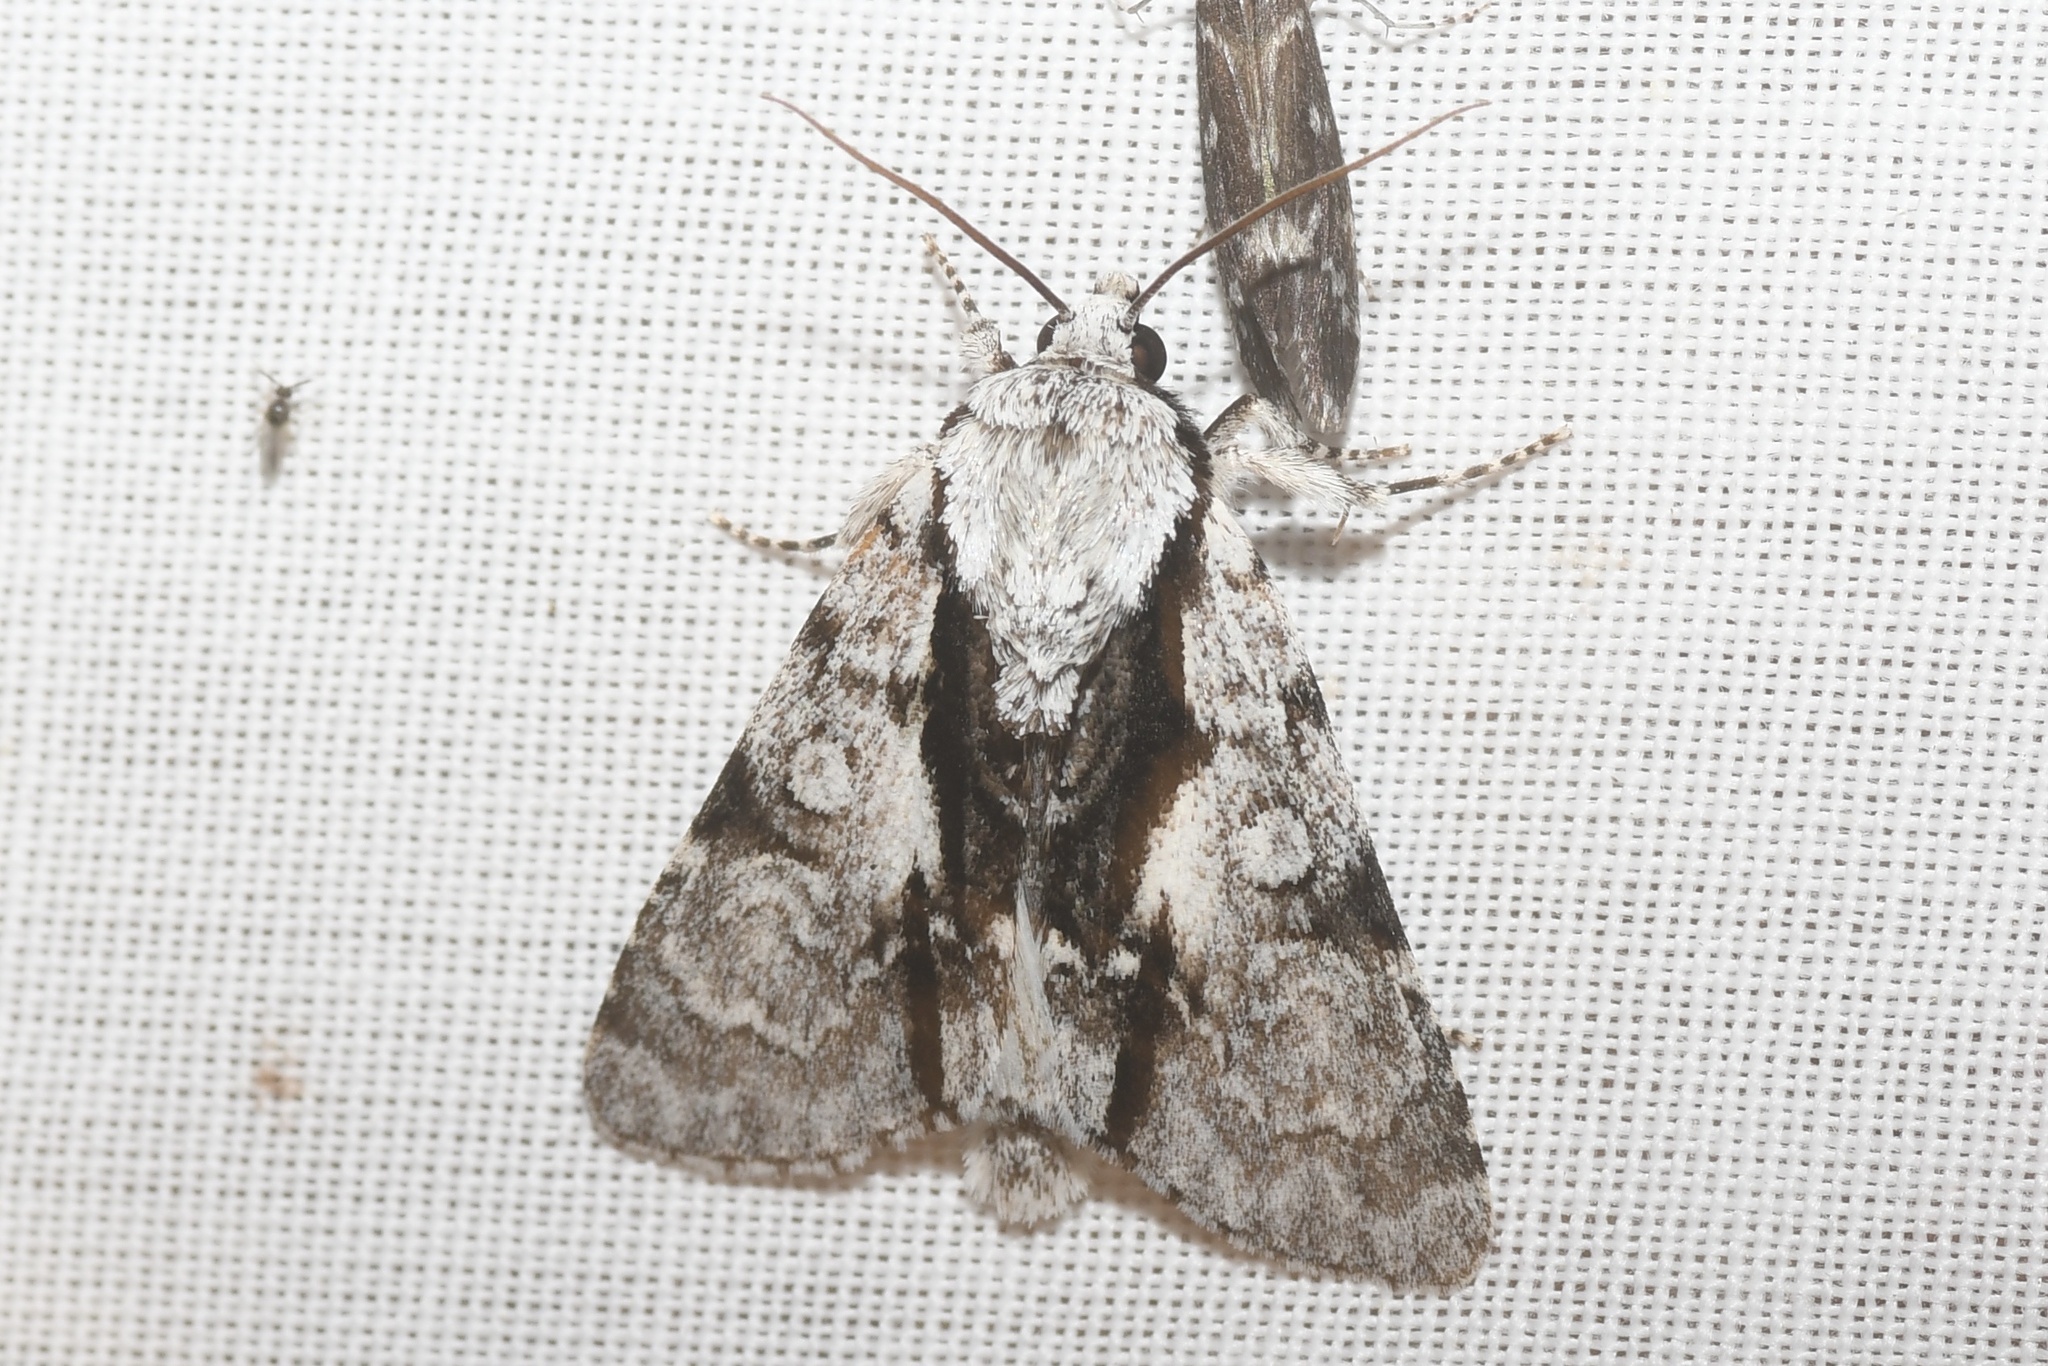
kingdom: Animalia
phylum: Arthropoda
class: Insecta
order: Lepidoptera
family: Noctuidae
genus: Acronicta
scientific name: Acronicta funeralis
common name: Funerary dagger
